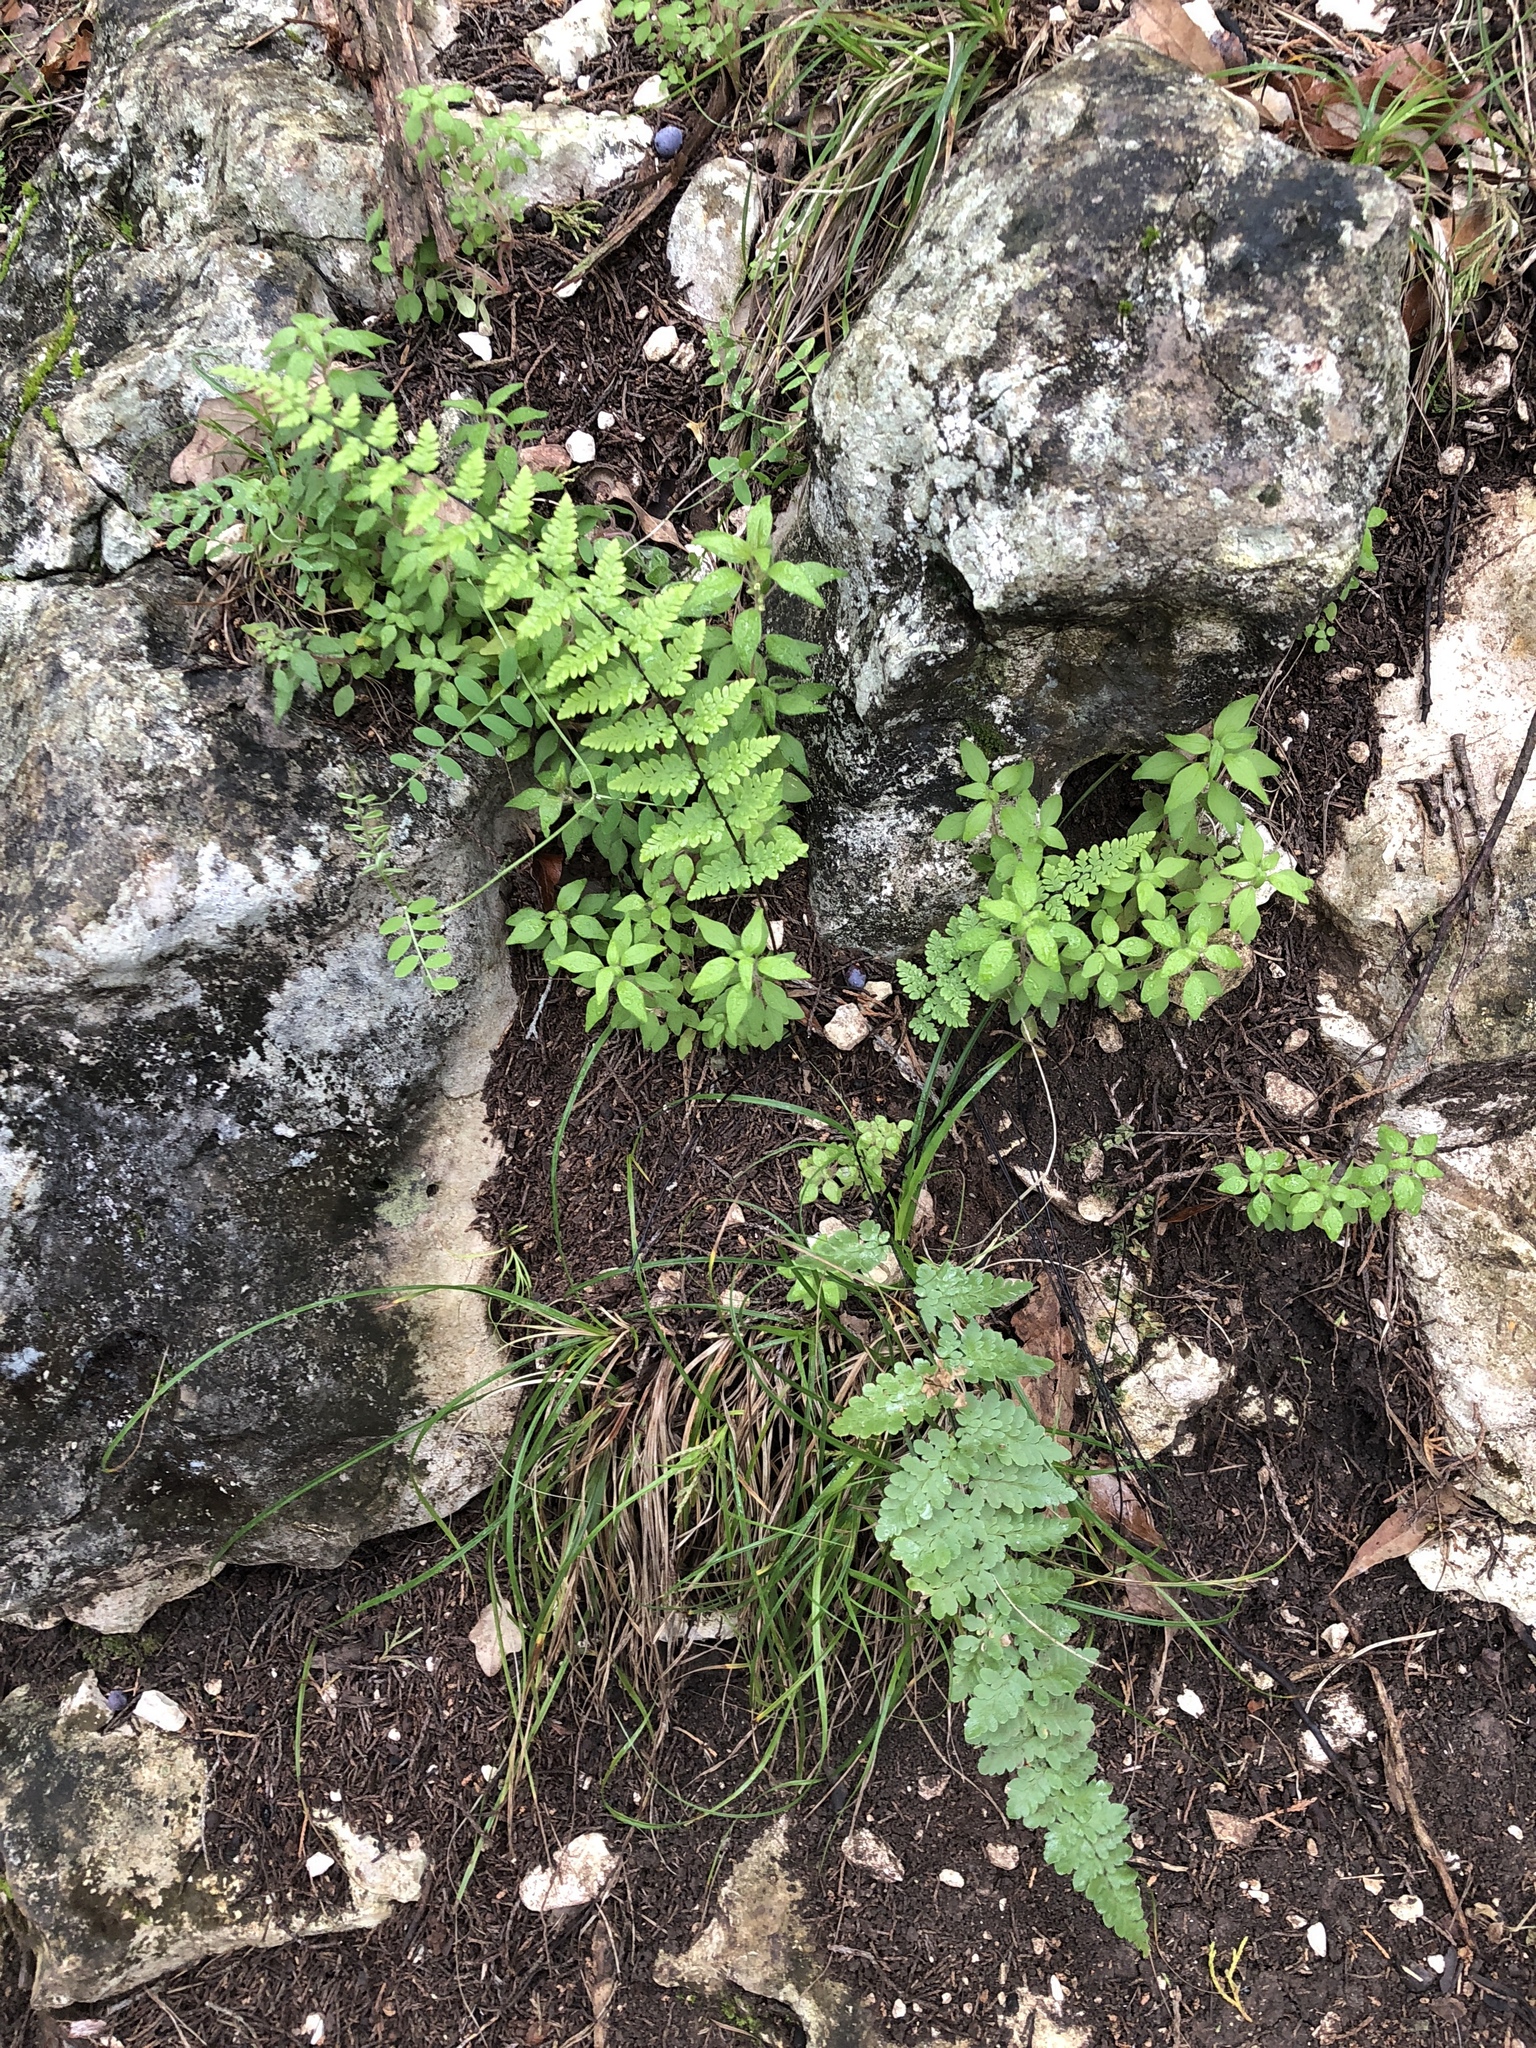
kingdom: Plantae
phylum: Tracheophyta
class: Polypodiopsida
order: Polypodiales
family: Pteridaceae
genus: Myriopteris
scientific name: Myriopteris alabamensis
